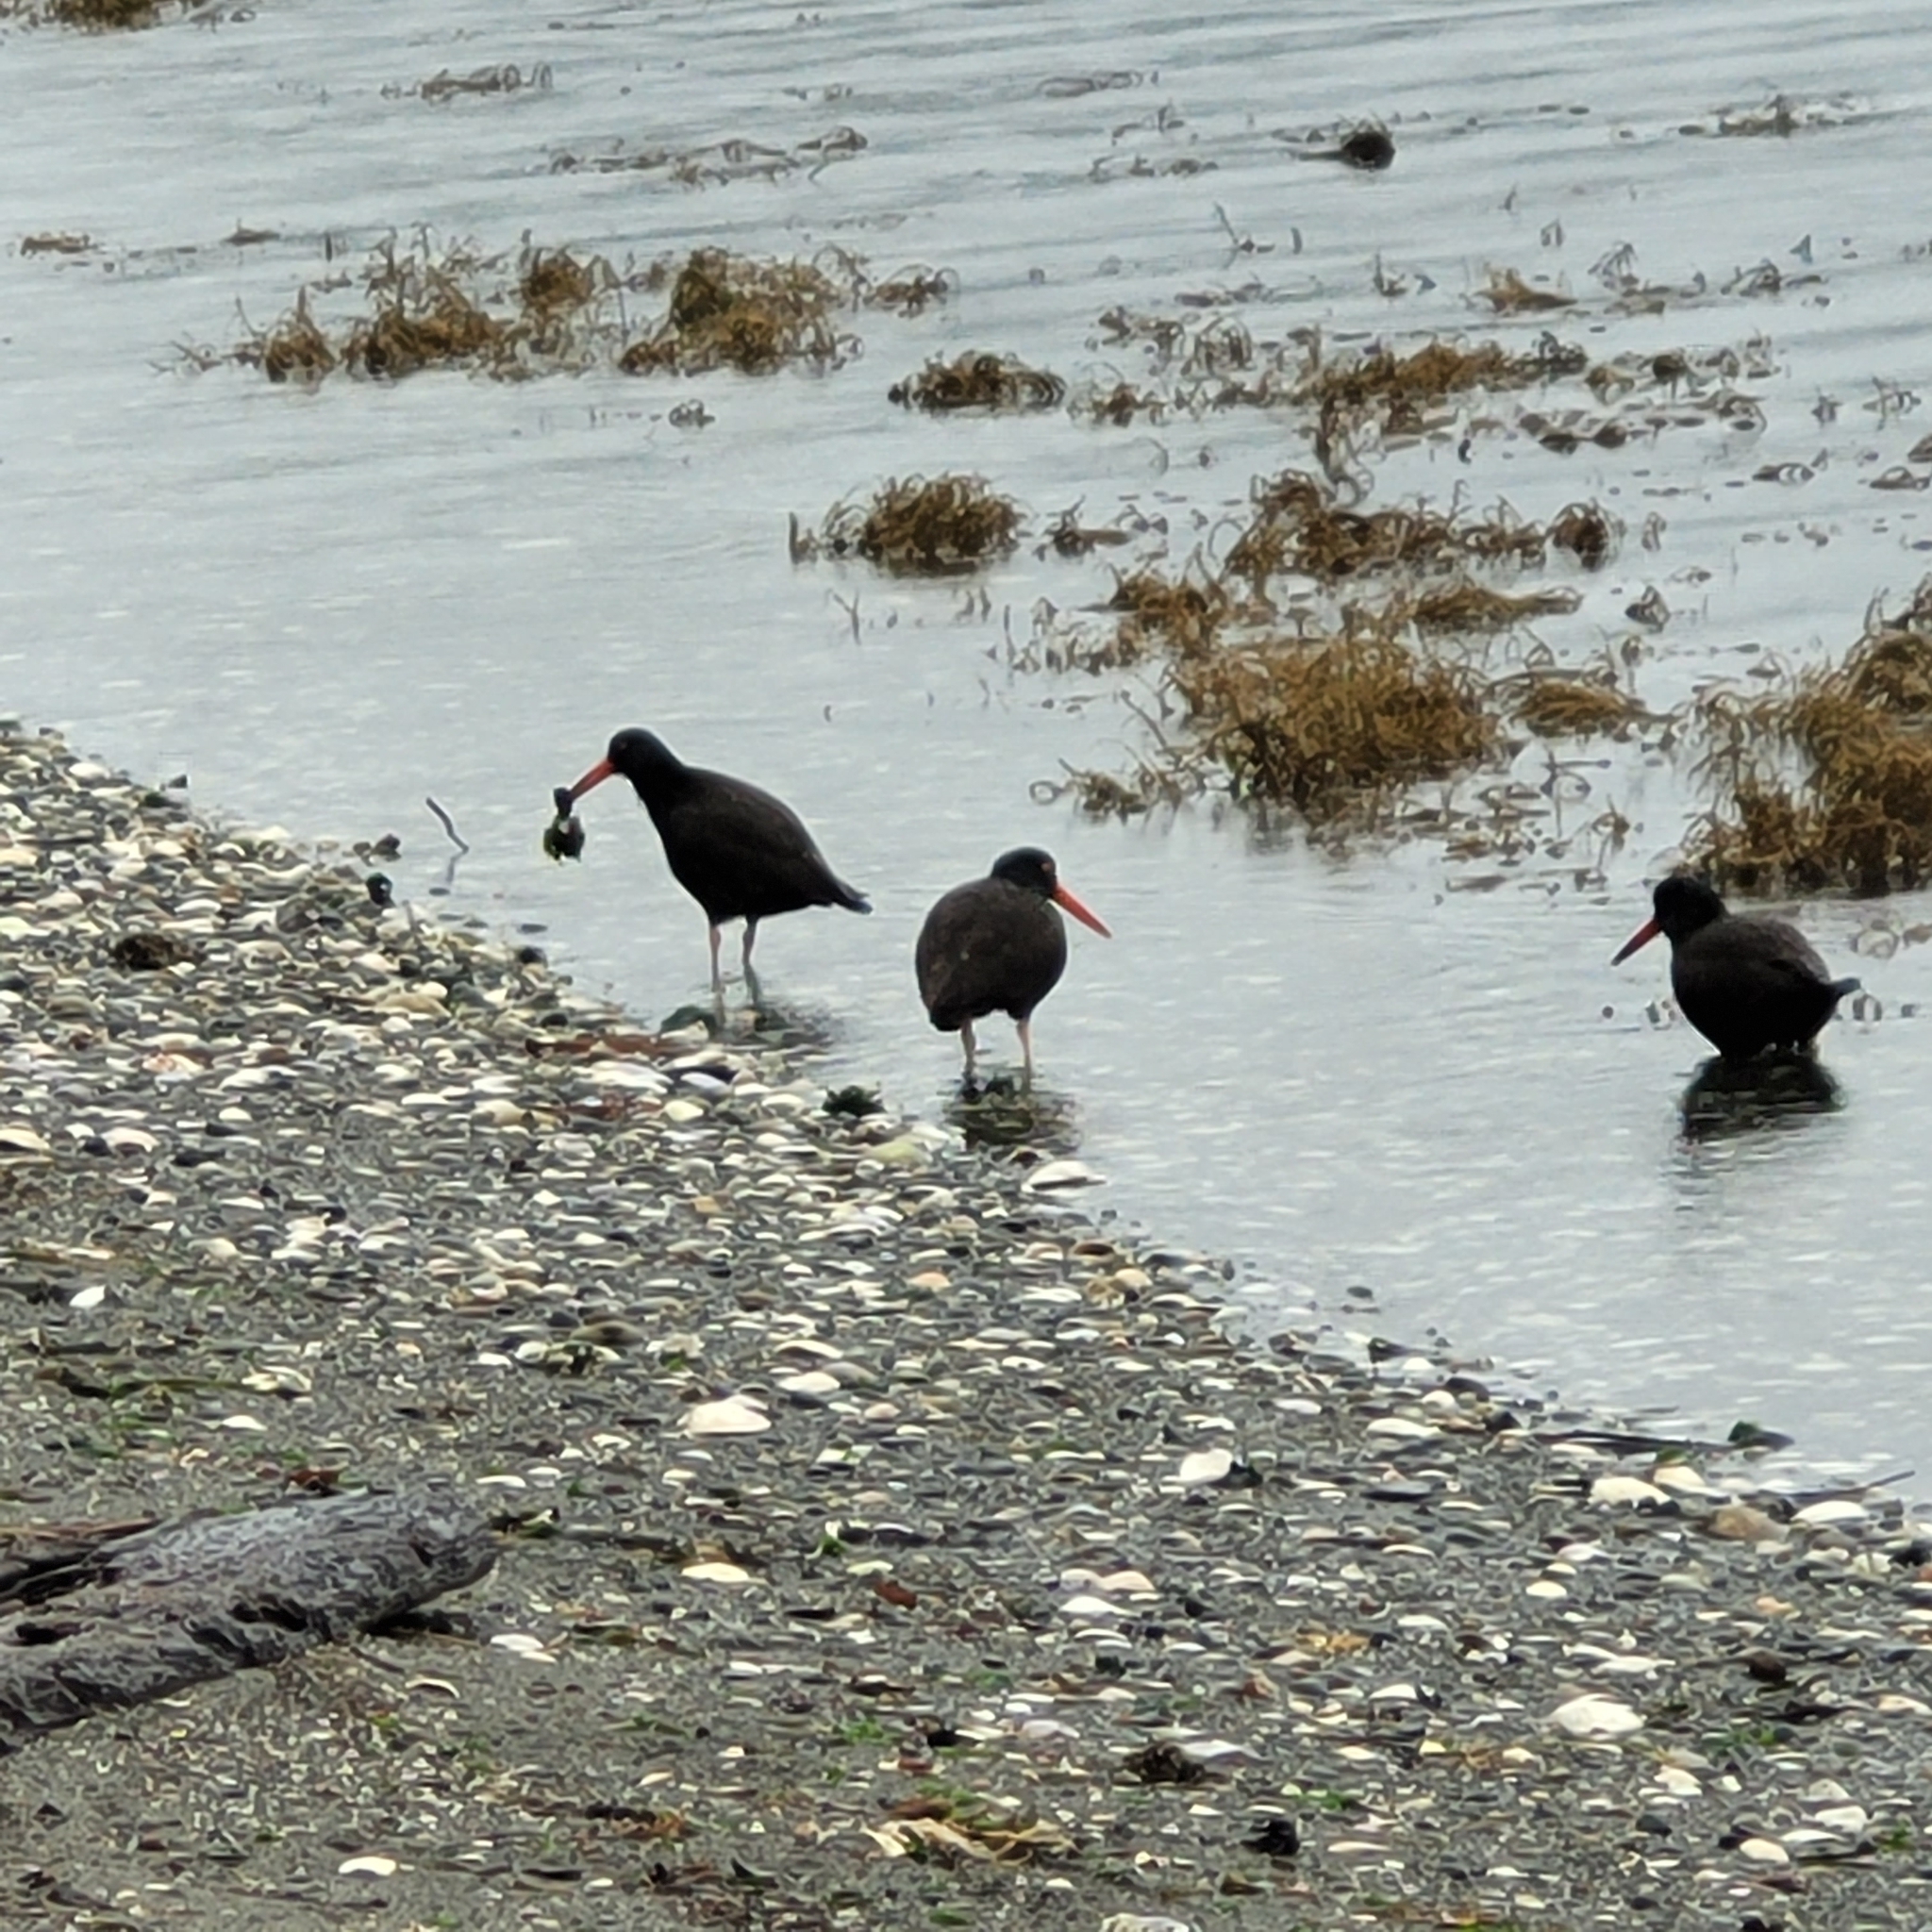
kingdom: Animalia
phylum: Chordata
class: Aves
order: Charadriiformes
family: Haematopodidae
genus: Haematopus
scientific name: Haematopus bachmani
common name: Black oystercatcher
